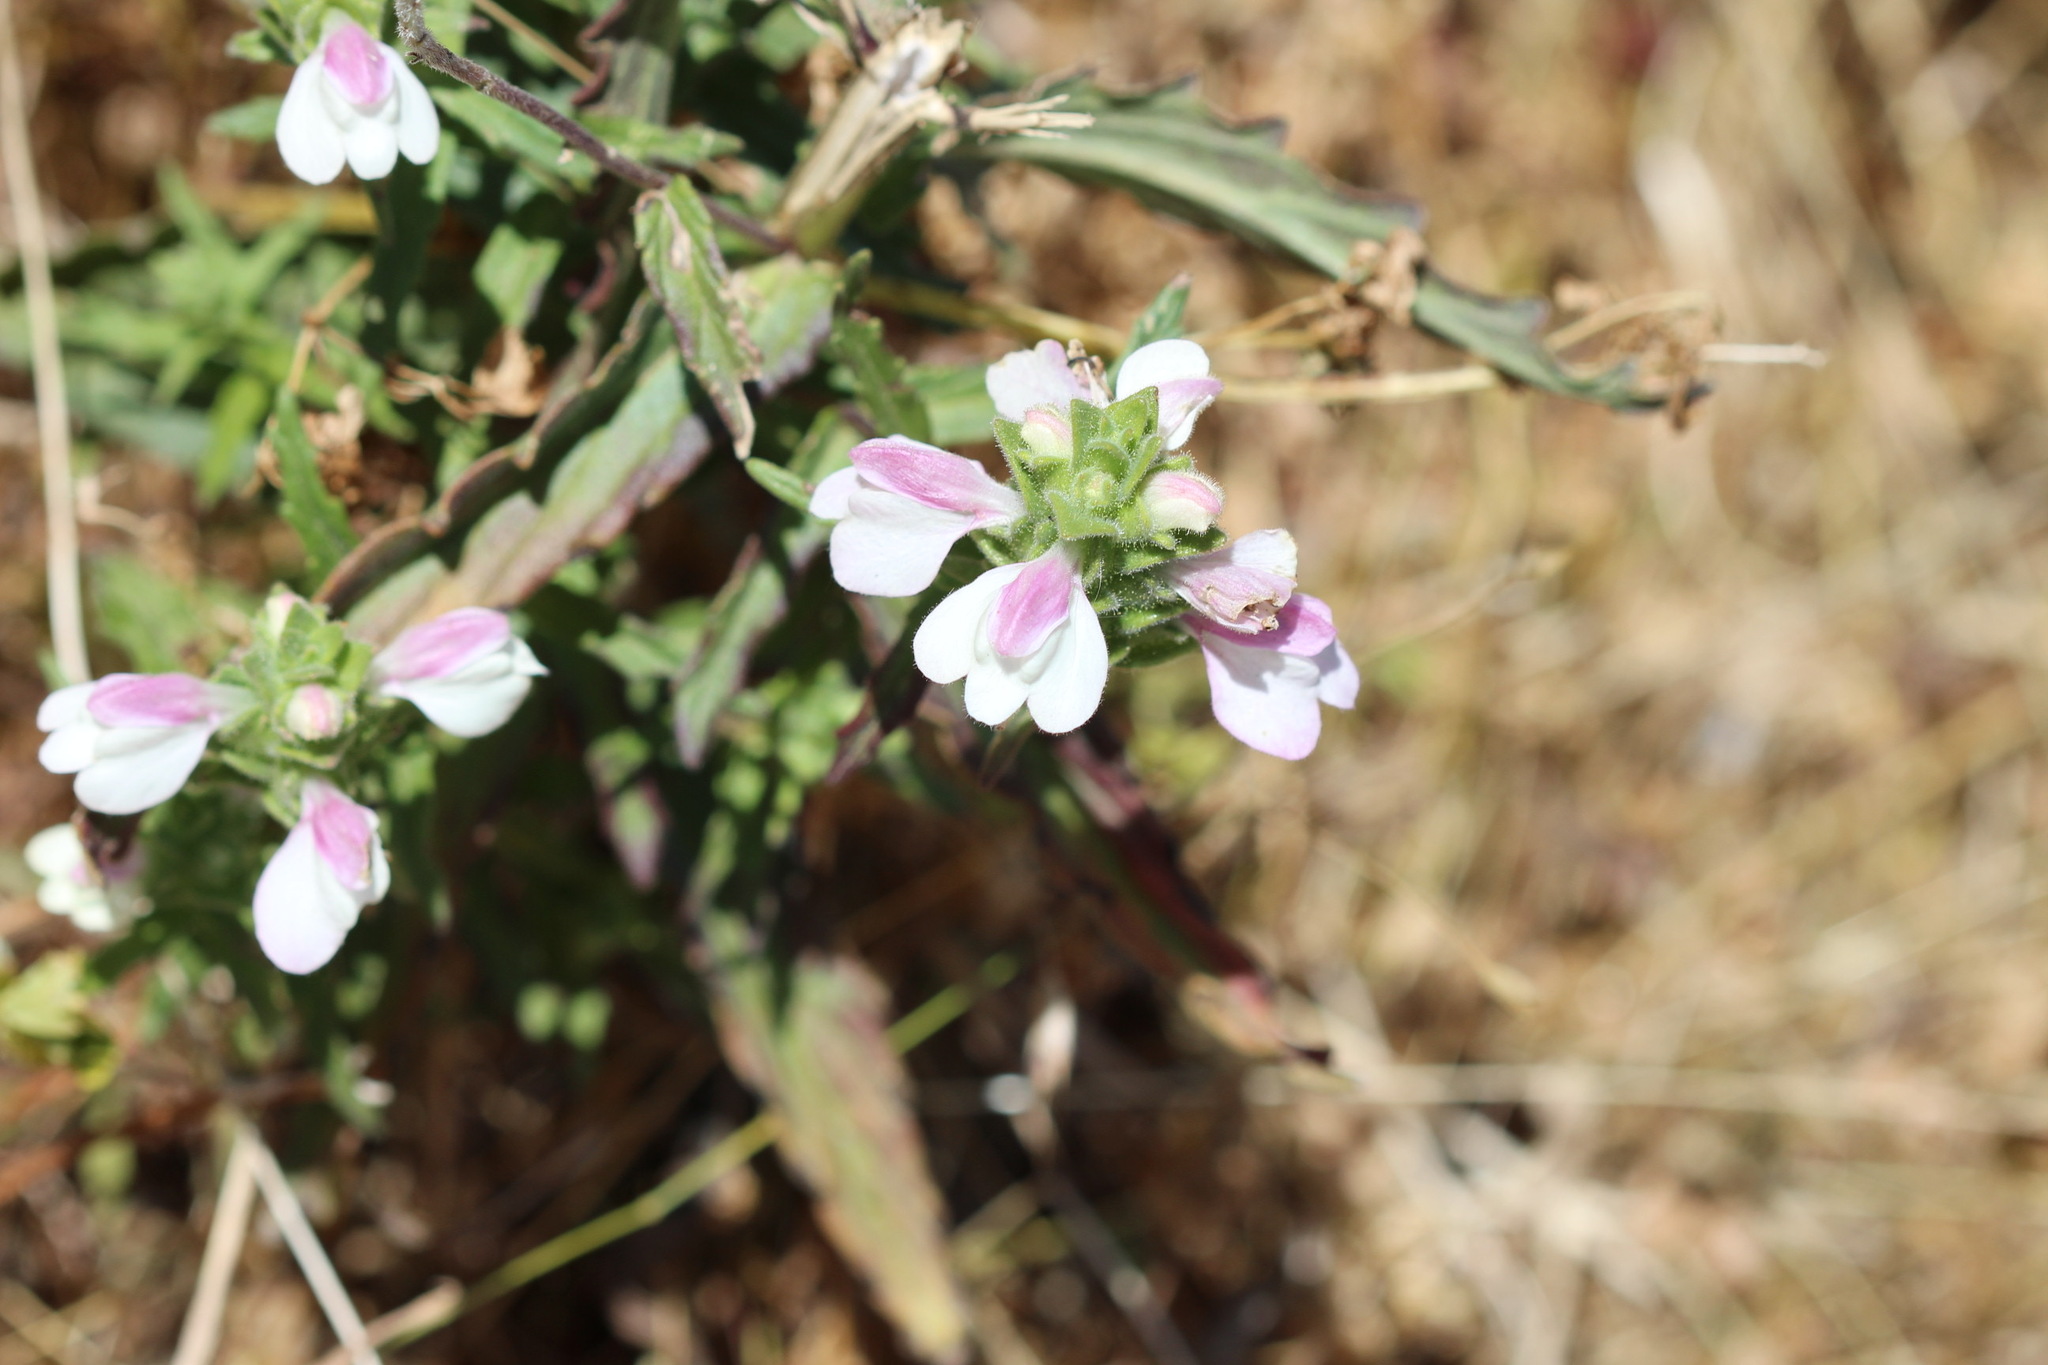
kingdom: Plantae
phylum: Tracheophyta
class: Magnoliopsida
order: Lamiales
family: Orobanchaceae
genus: Bellardia
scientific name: Bellardia trixago
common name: Mediterranean lineseed
